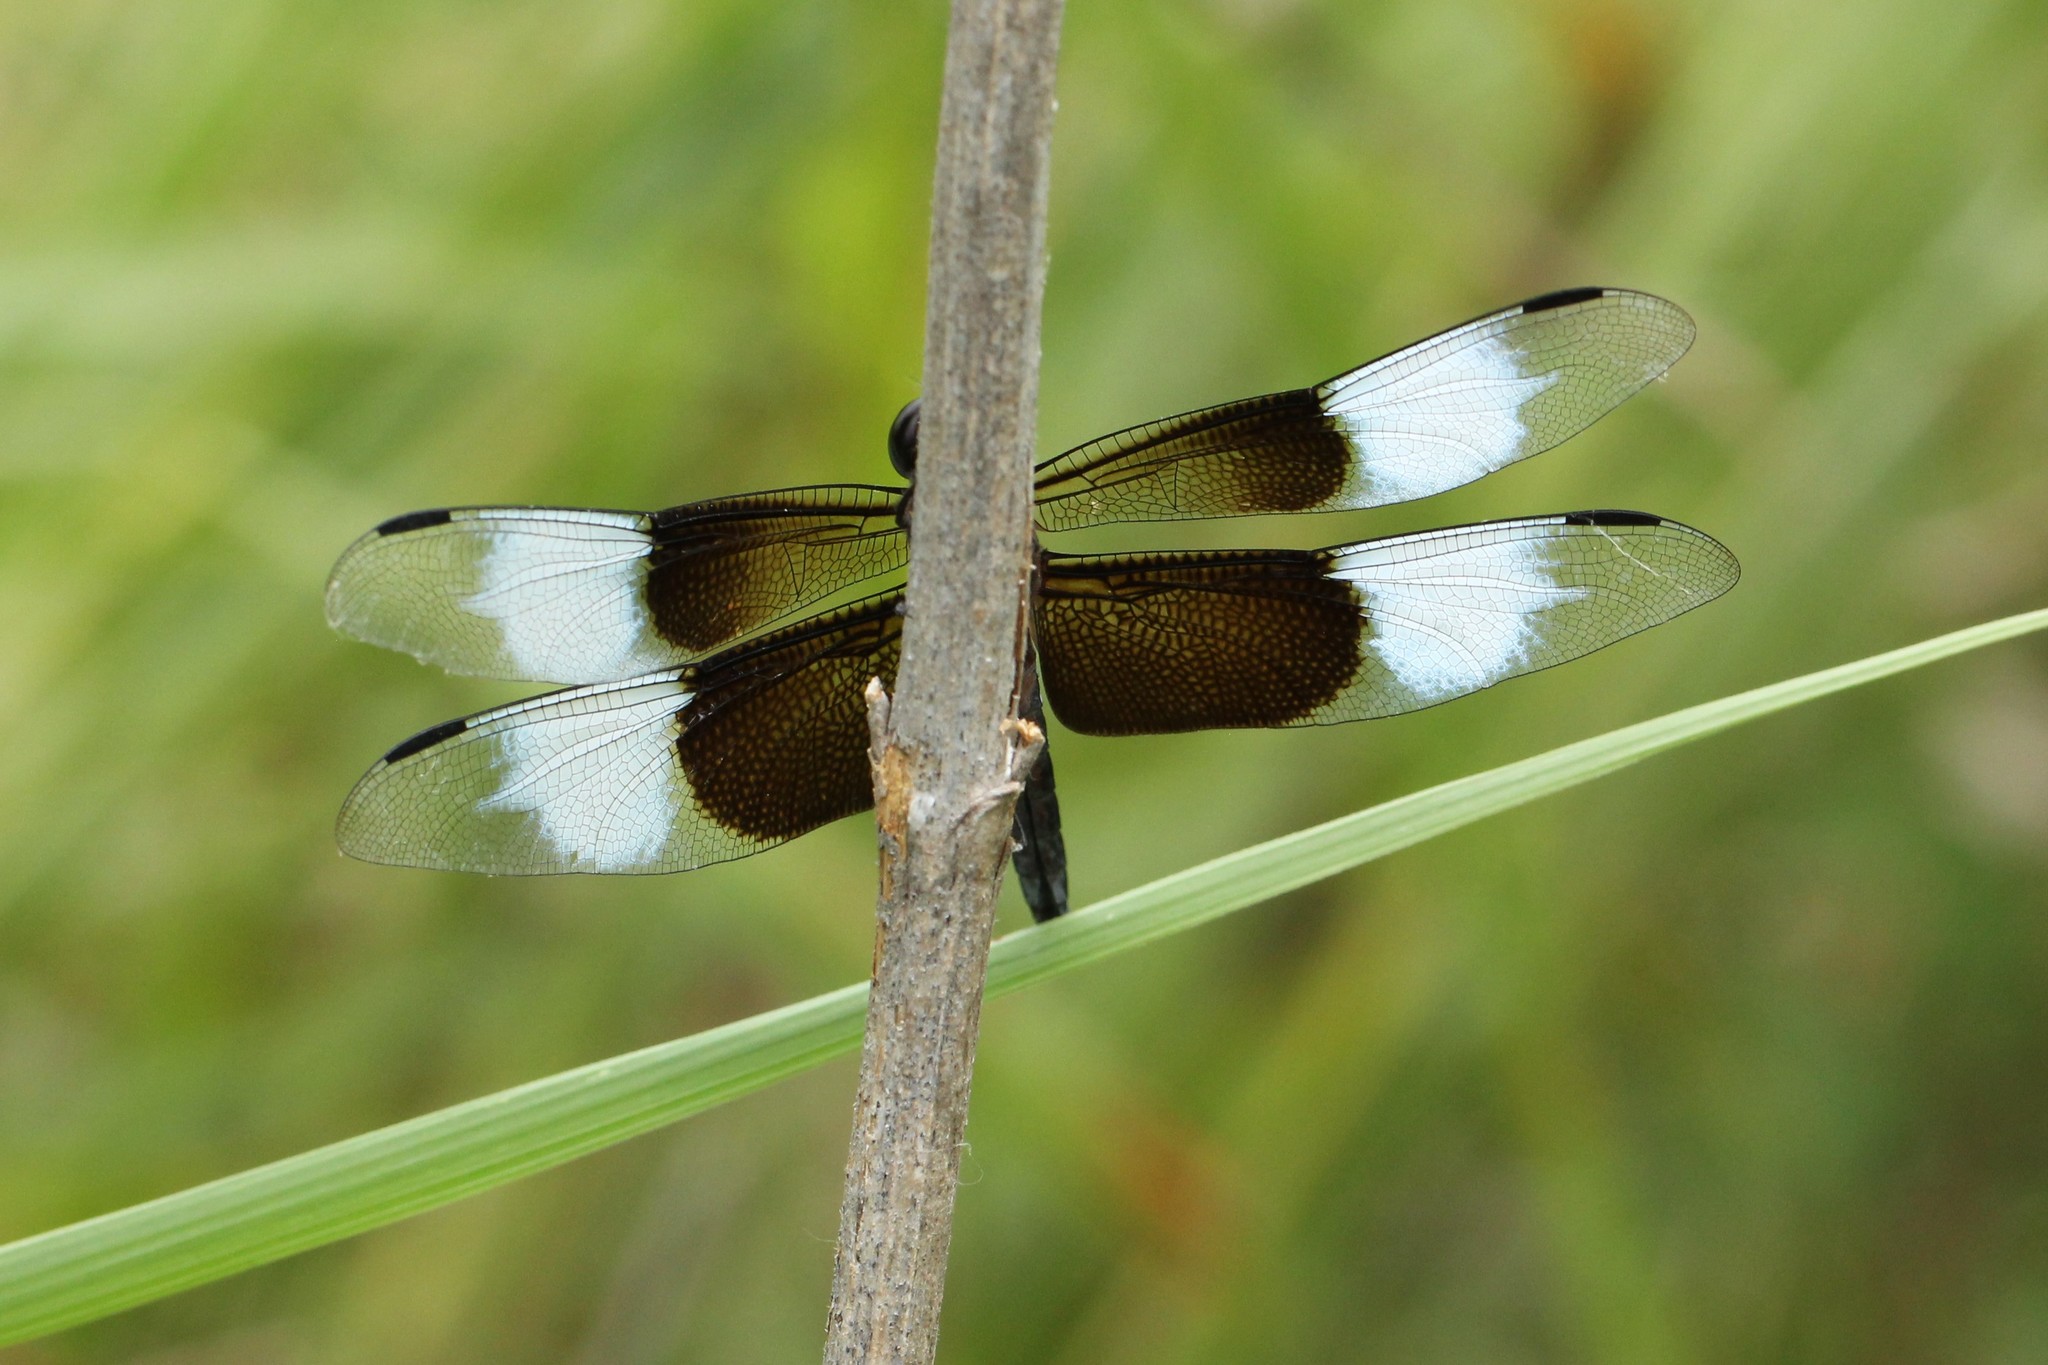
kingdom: Animalia
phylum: Arthropoda
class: Insecta
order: Odonata
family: Libellulidae
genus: Libellula
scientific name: Libellula luctuosa
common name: Widow skimmer
